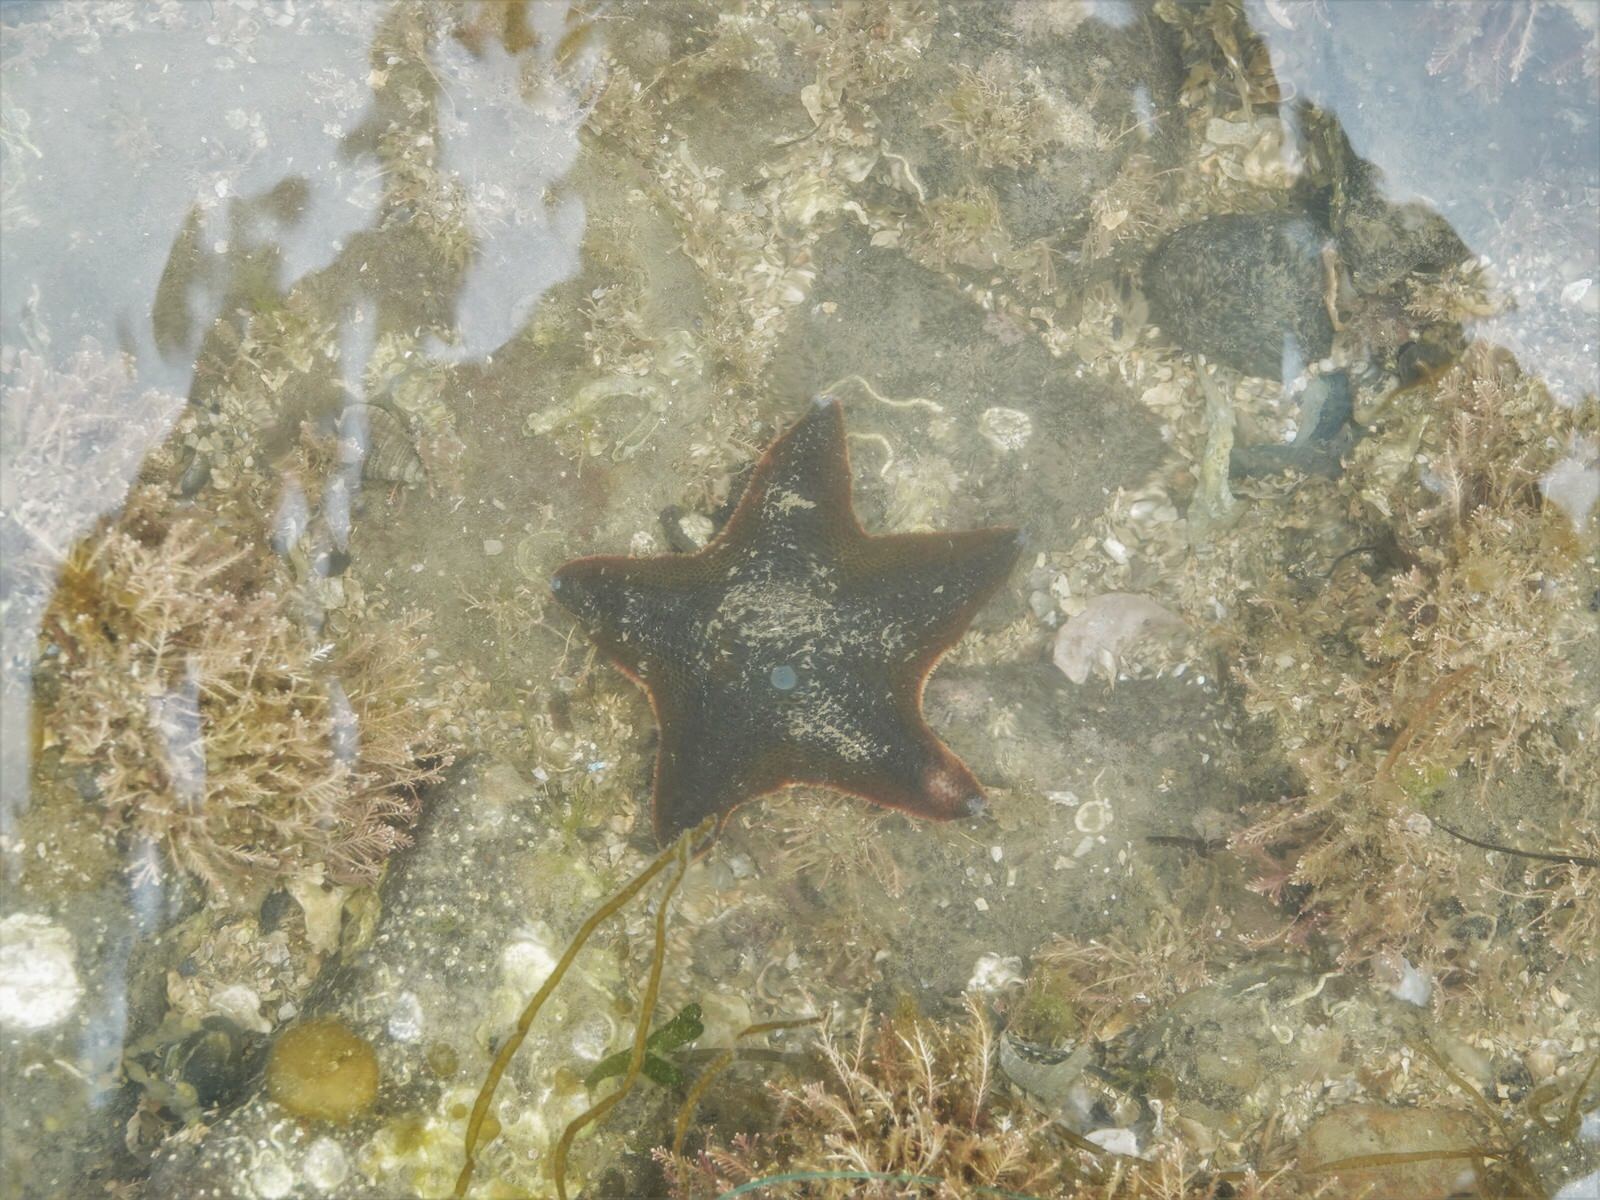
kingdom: Animalia
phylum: Echinodermata
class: Asteroidea
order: Valvatida
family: Asterinidae
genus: Patiriella
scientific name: Patiriella regularis
